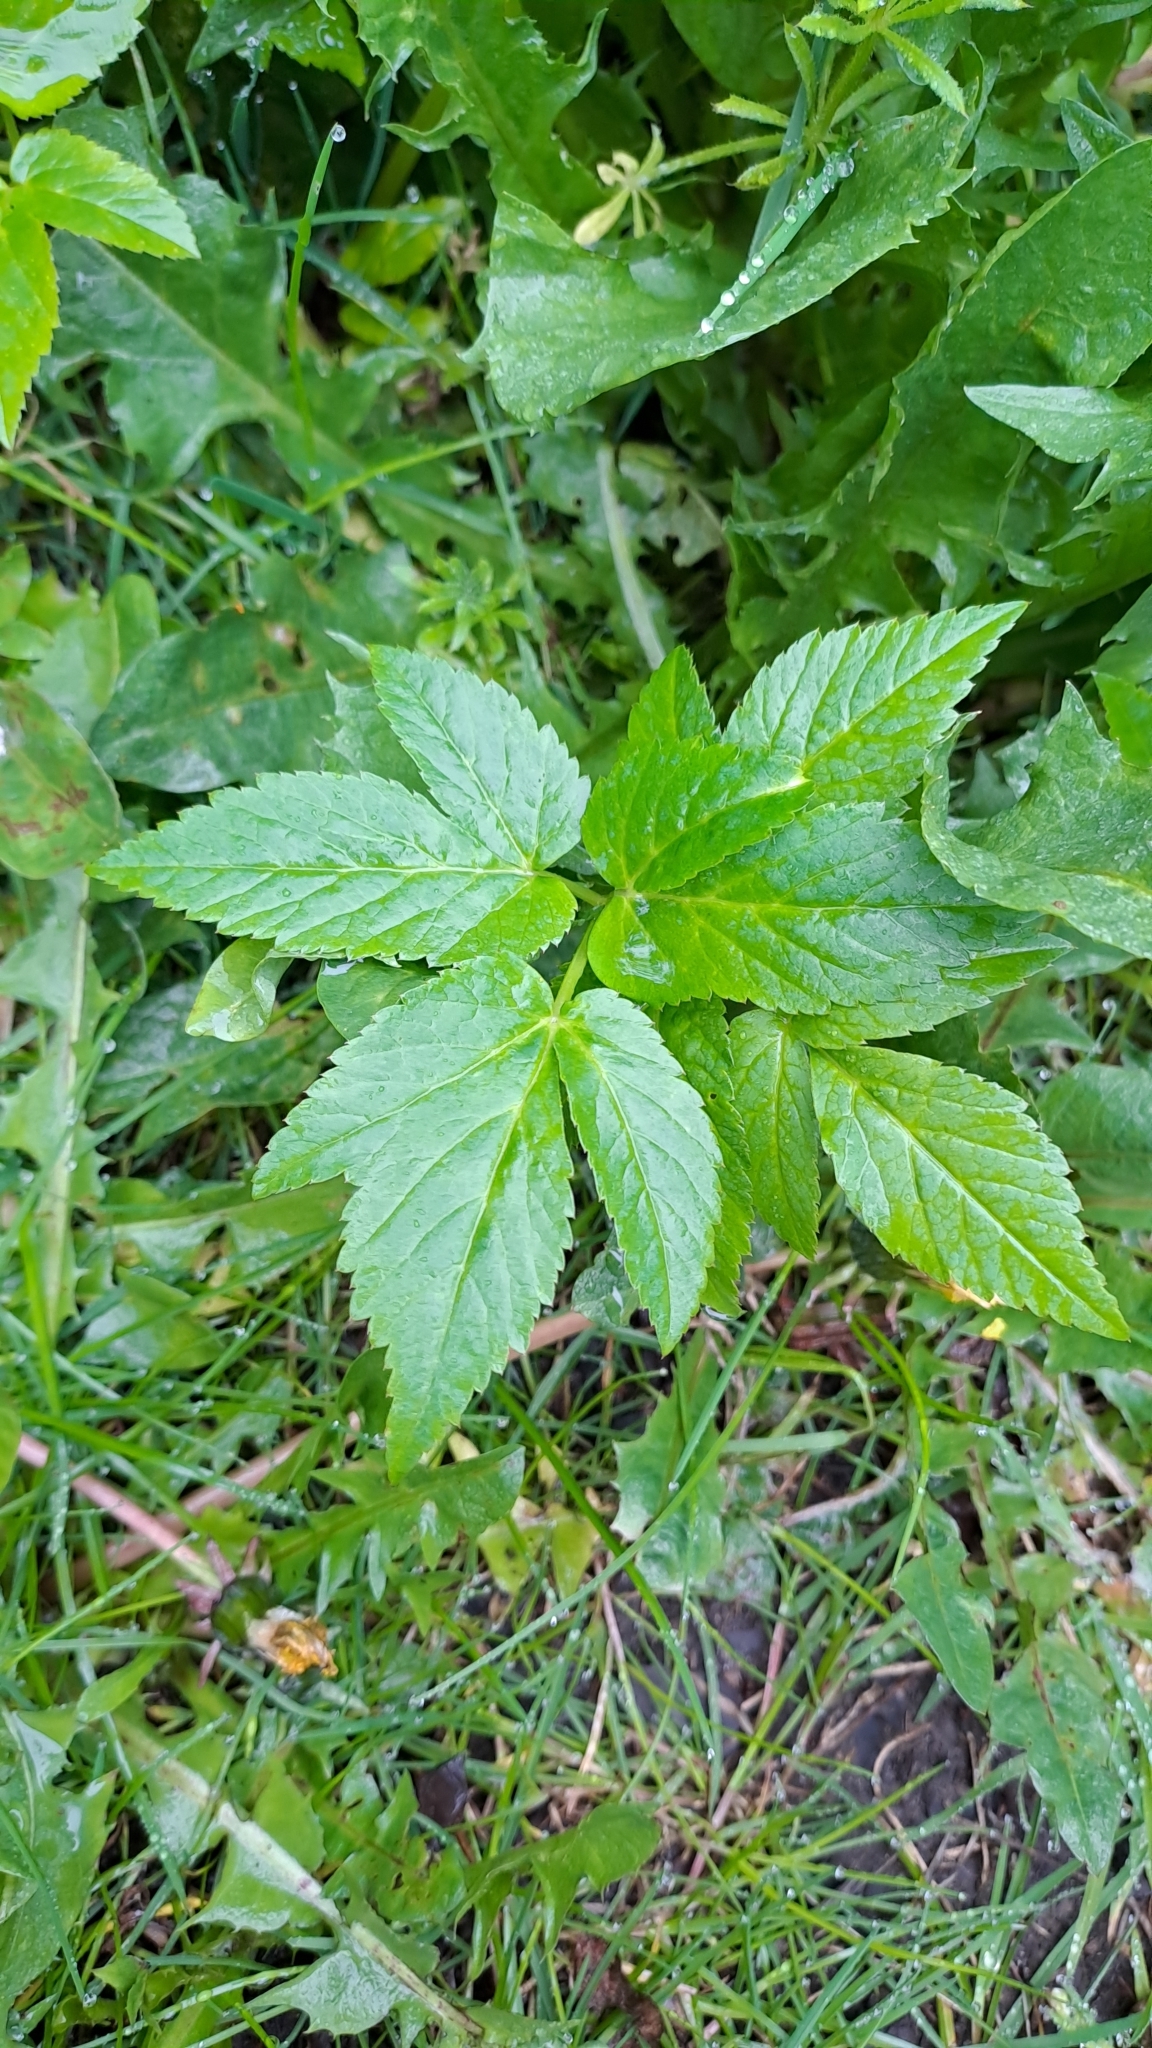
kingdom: Plantae
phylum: Tracheophyta
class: Magnoliopsida
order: Apiales
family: Apiaceae
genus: Aegopodium
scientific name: Aegopodium podagraria
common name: Ground-elder
